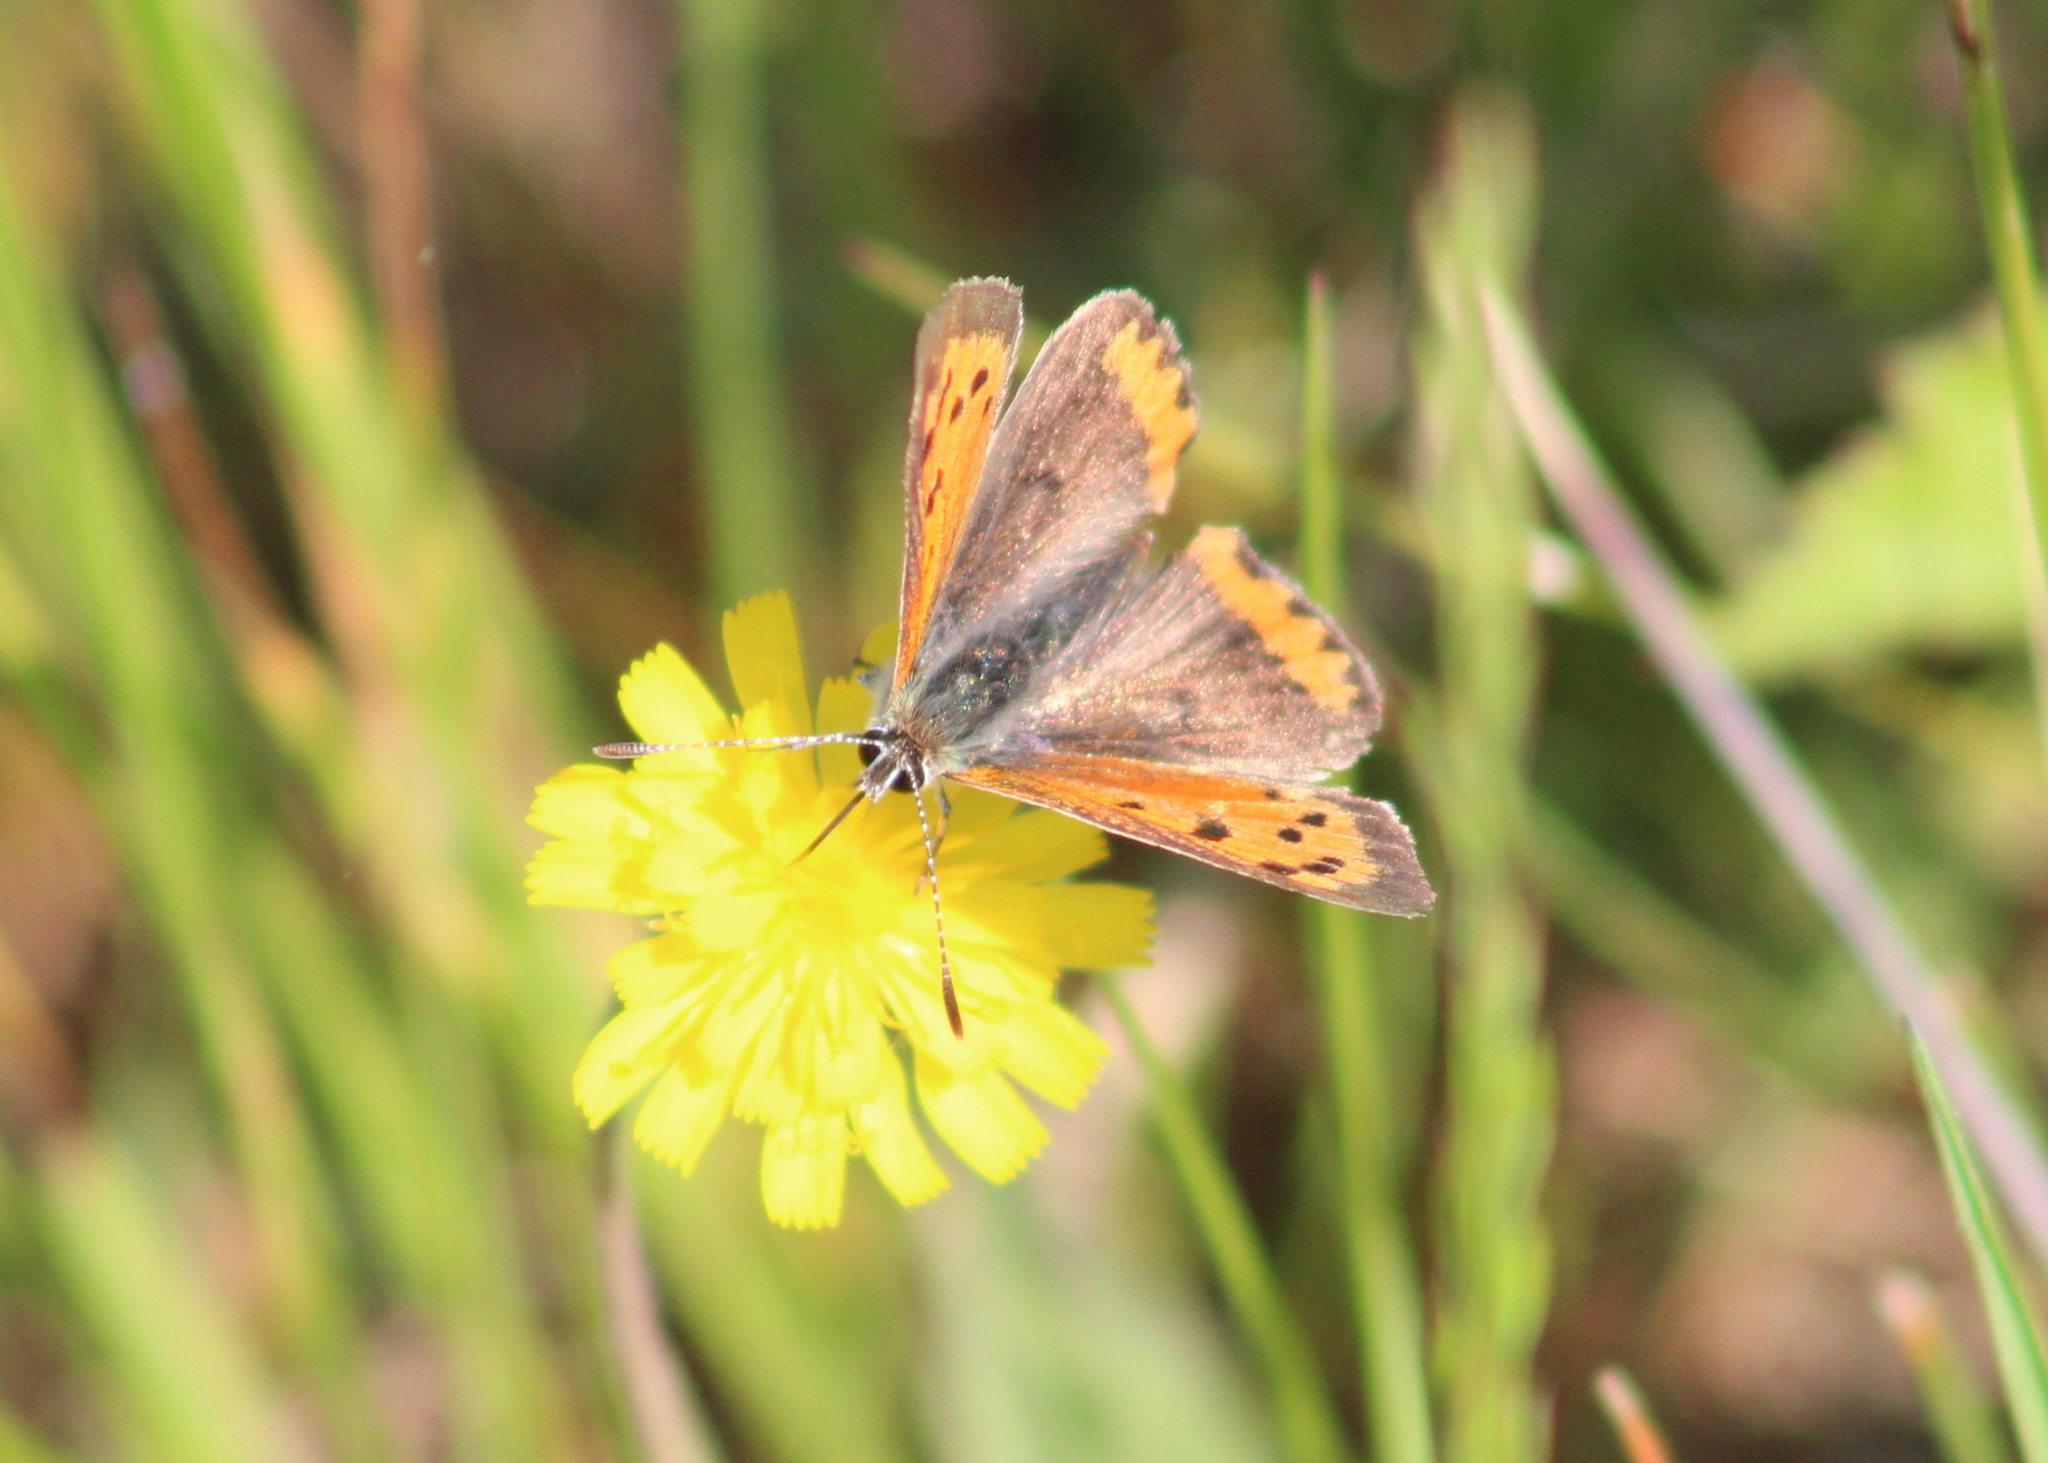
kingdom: Animalia
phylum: Arthropoda
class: Insecta
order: Lepidoptera
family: Lycaenidae
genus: Lycaena
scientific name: Lycaena hypophlaeas
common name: American copper
